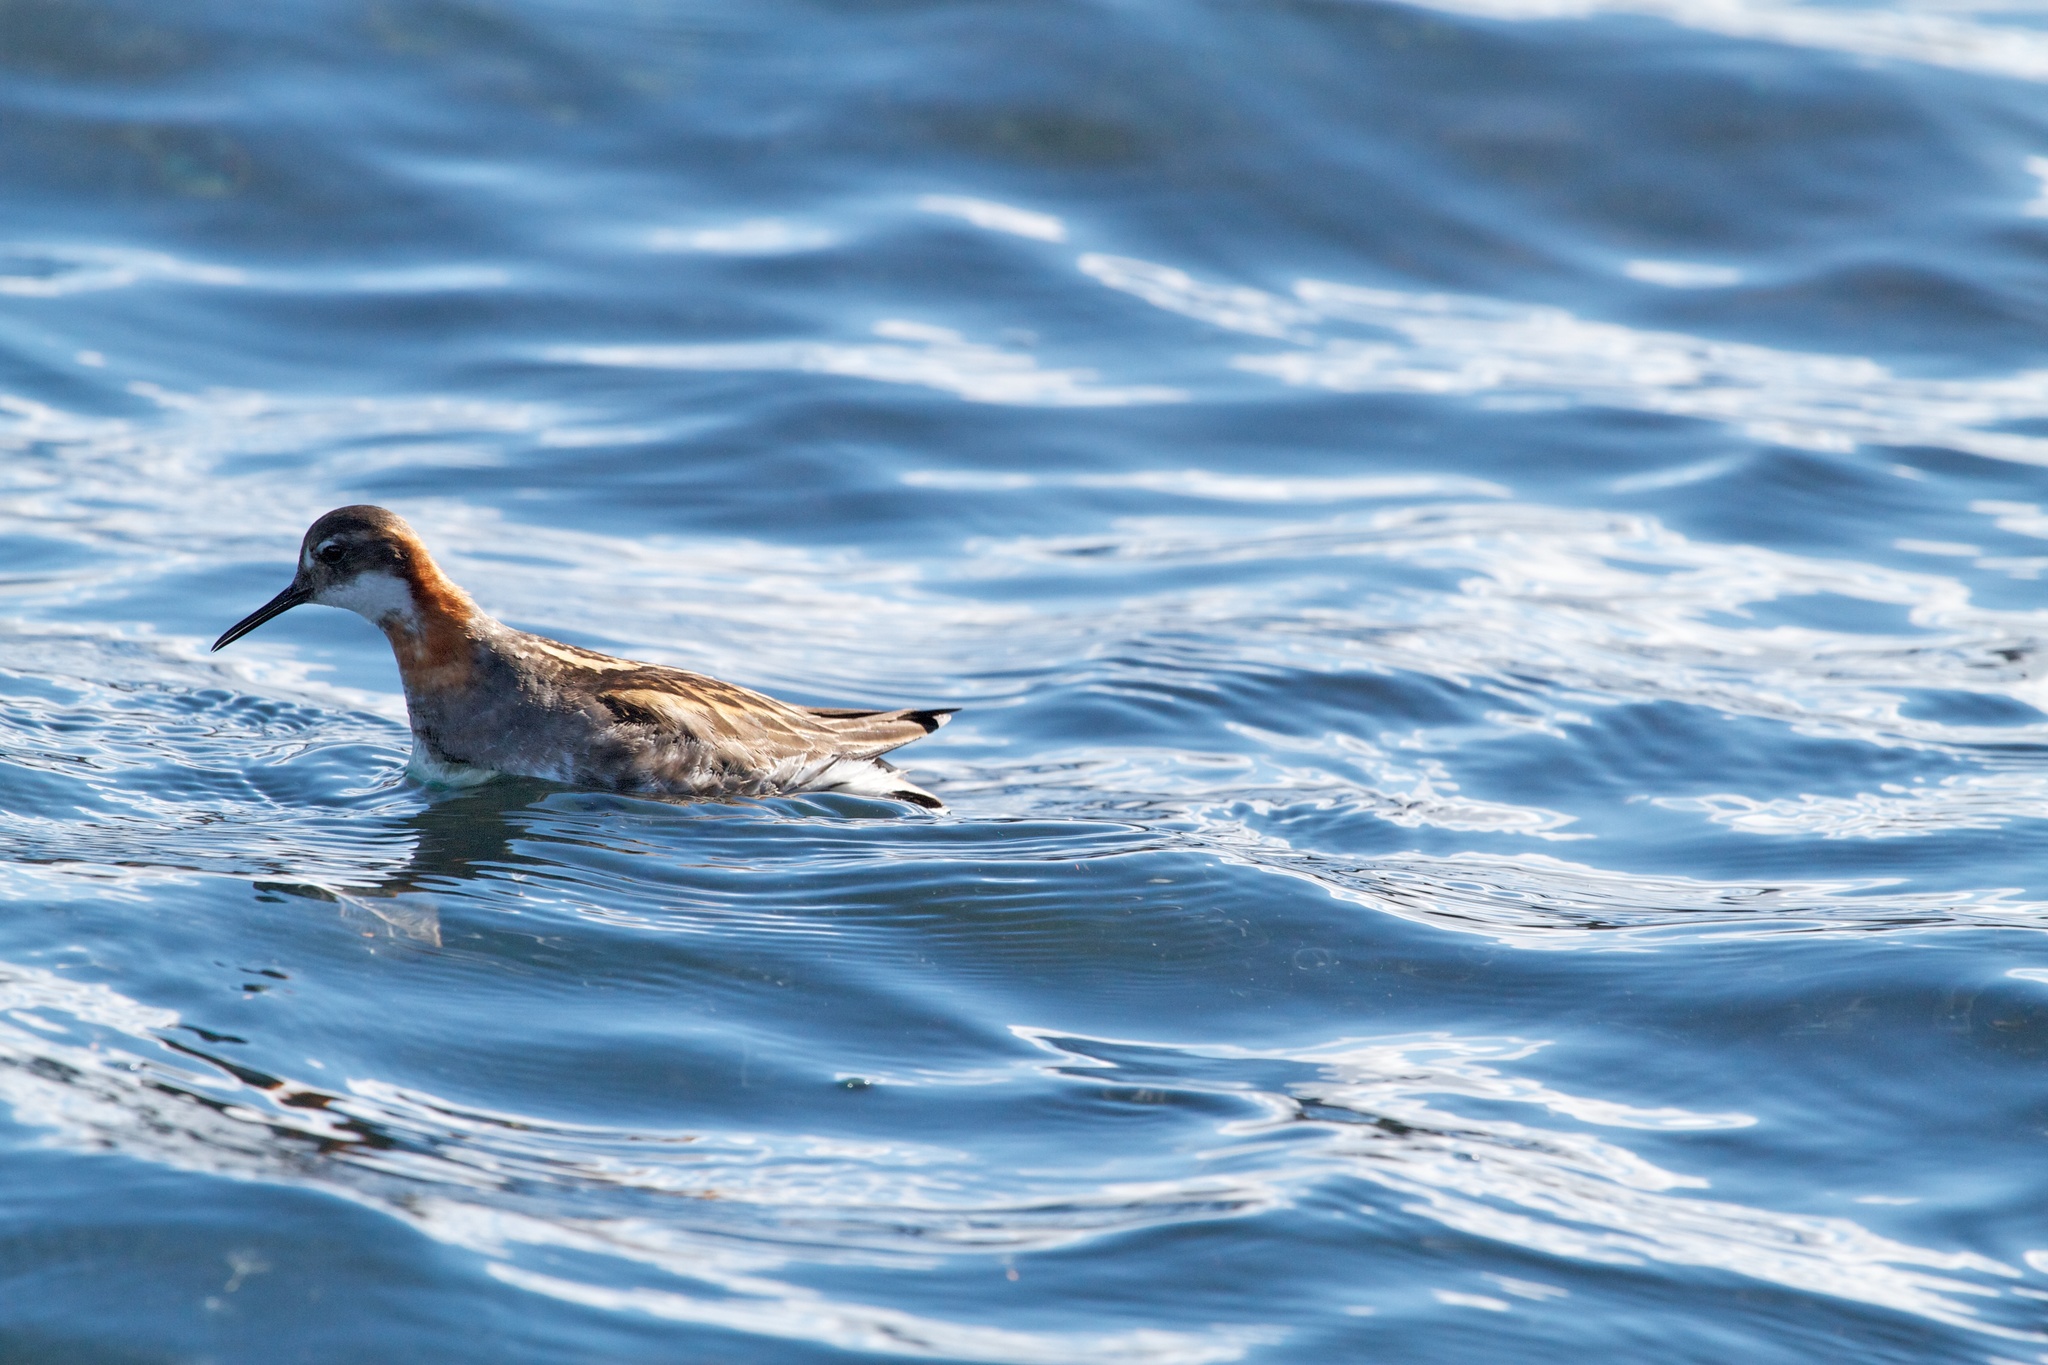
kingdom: Animalia
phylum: Chordata
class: Aves
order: Charadriiformes
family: Scolopacidae
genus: Phalaropus
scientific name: Phalaropus lobatus
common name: Red-necked phalarope
